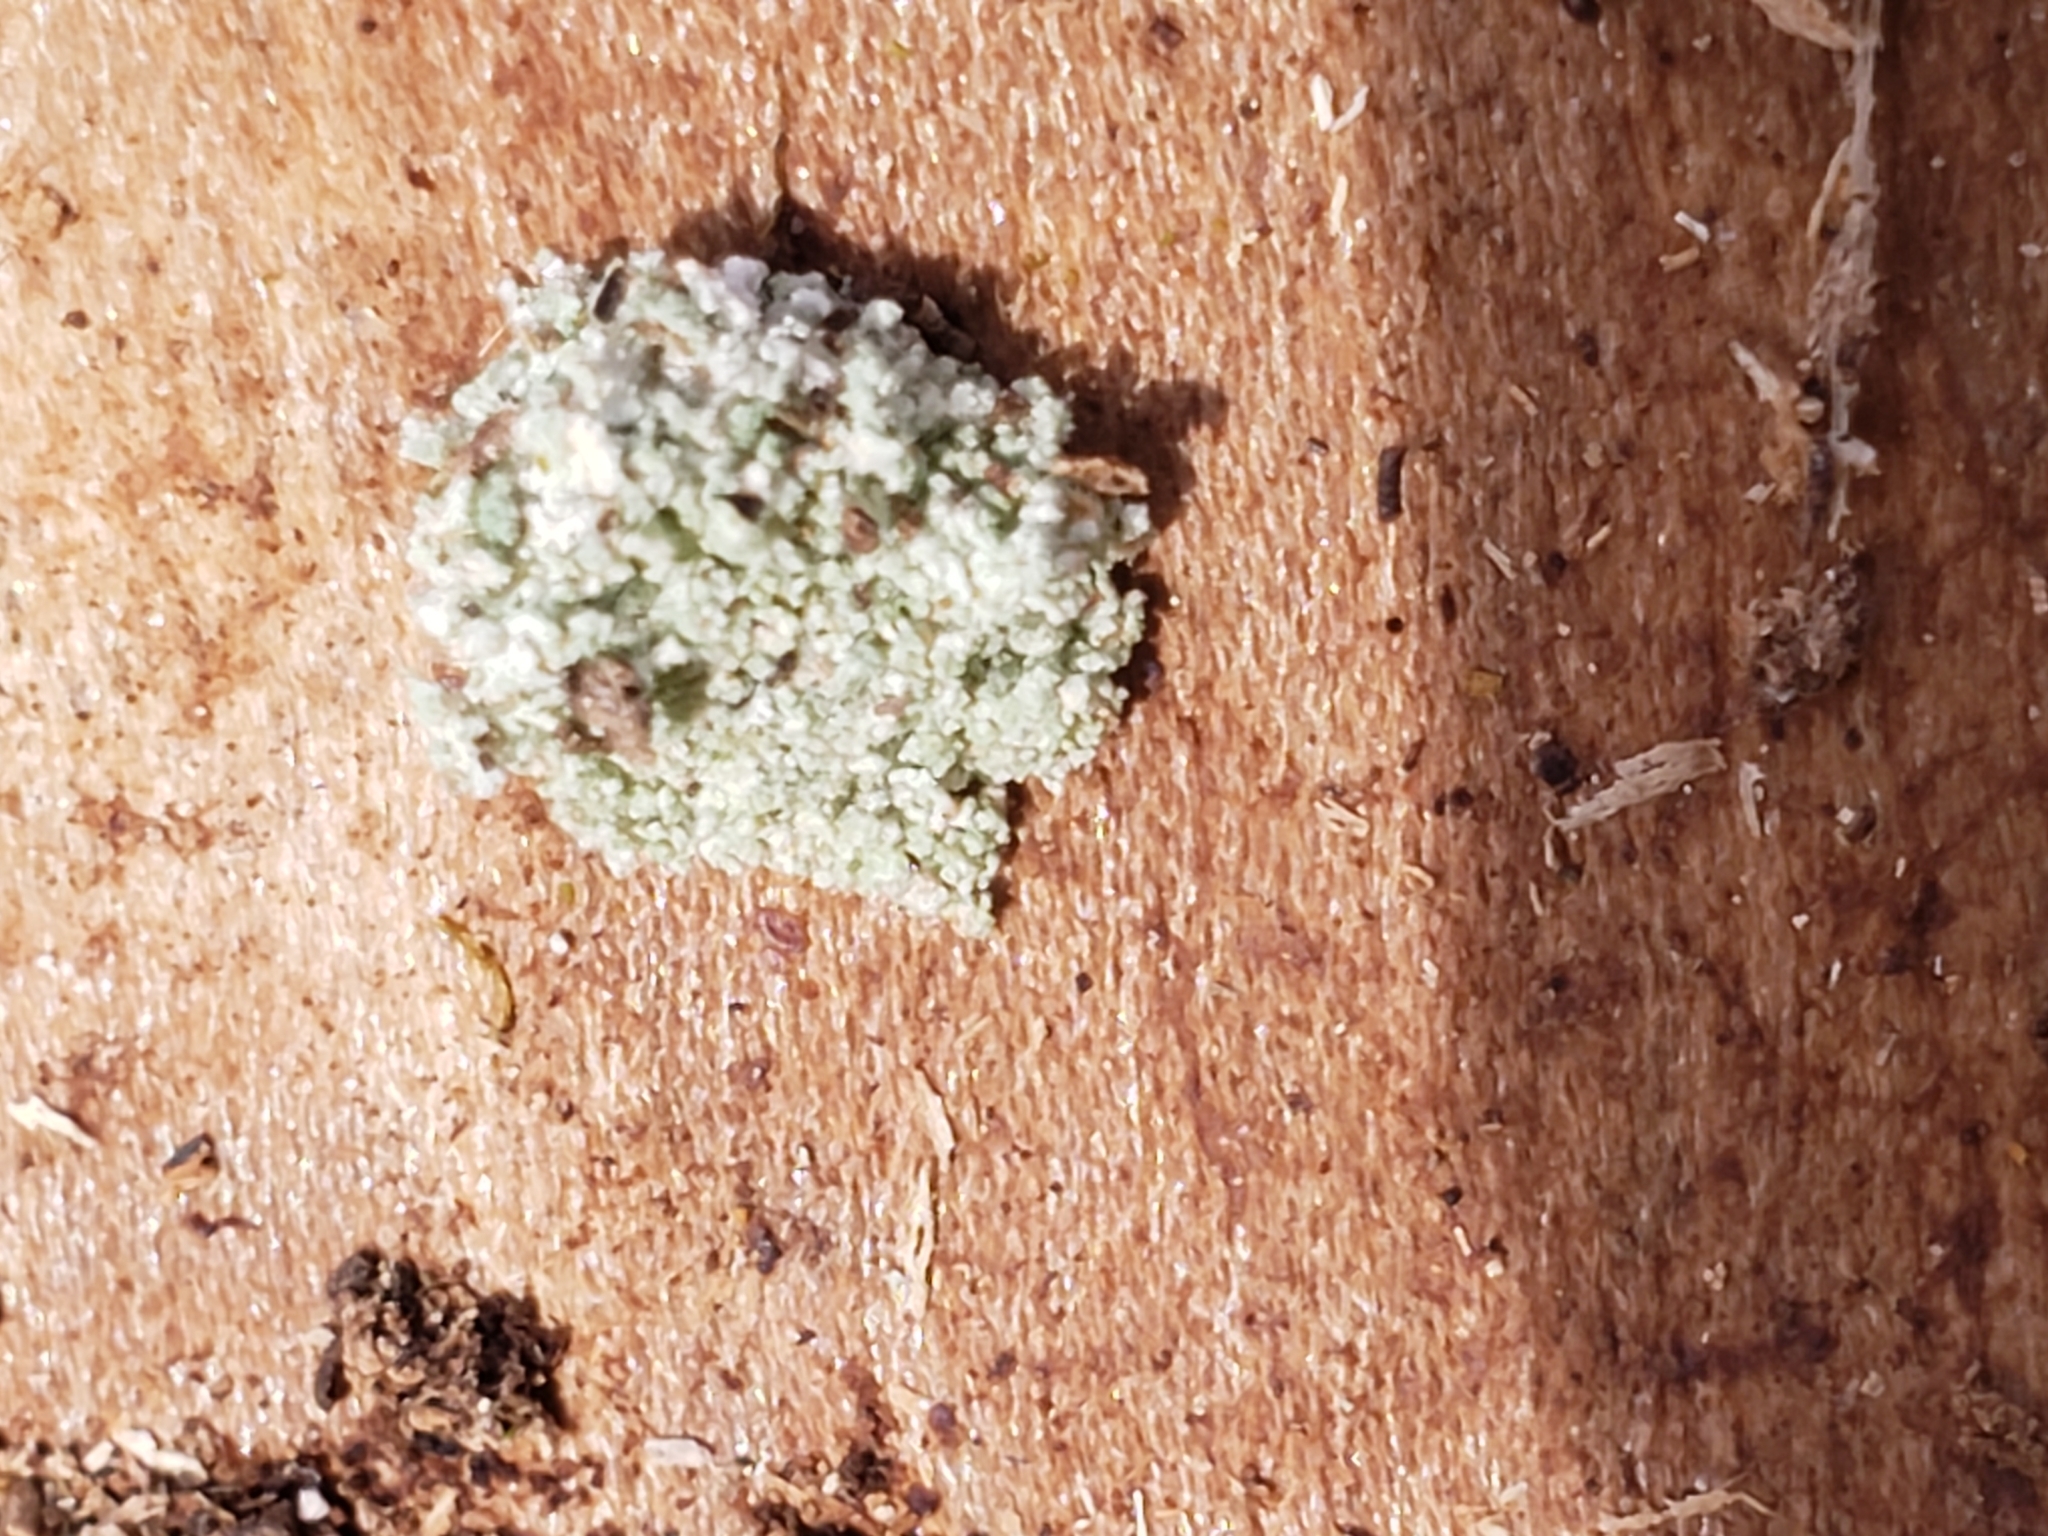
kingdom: Animalia
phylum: Arthropoda
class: Insecta
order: Neuroptera
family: Chrysopidae
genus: Leucochrysa
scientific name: Leucochrysa pavida
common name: Lichen-carrying green lacewing
